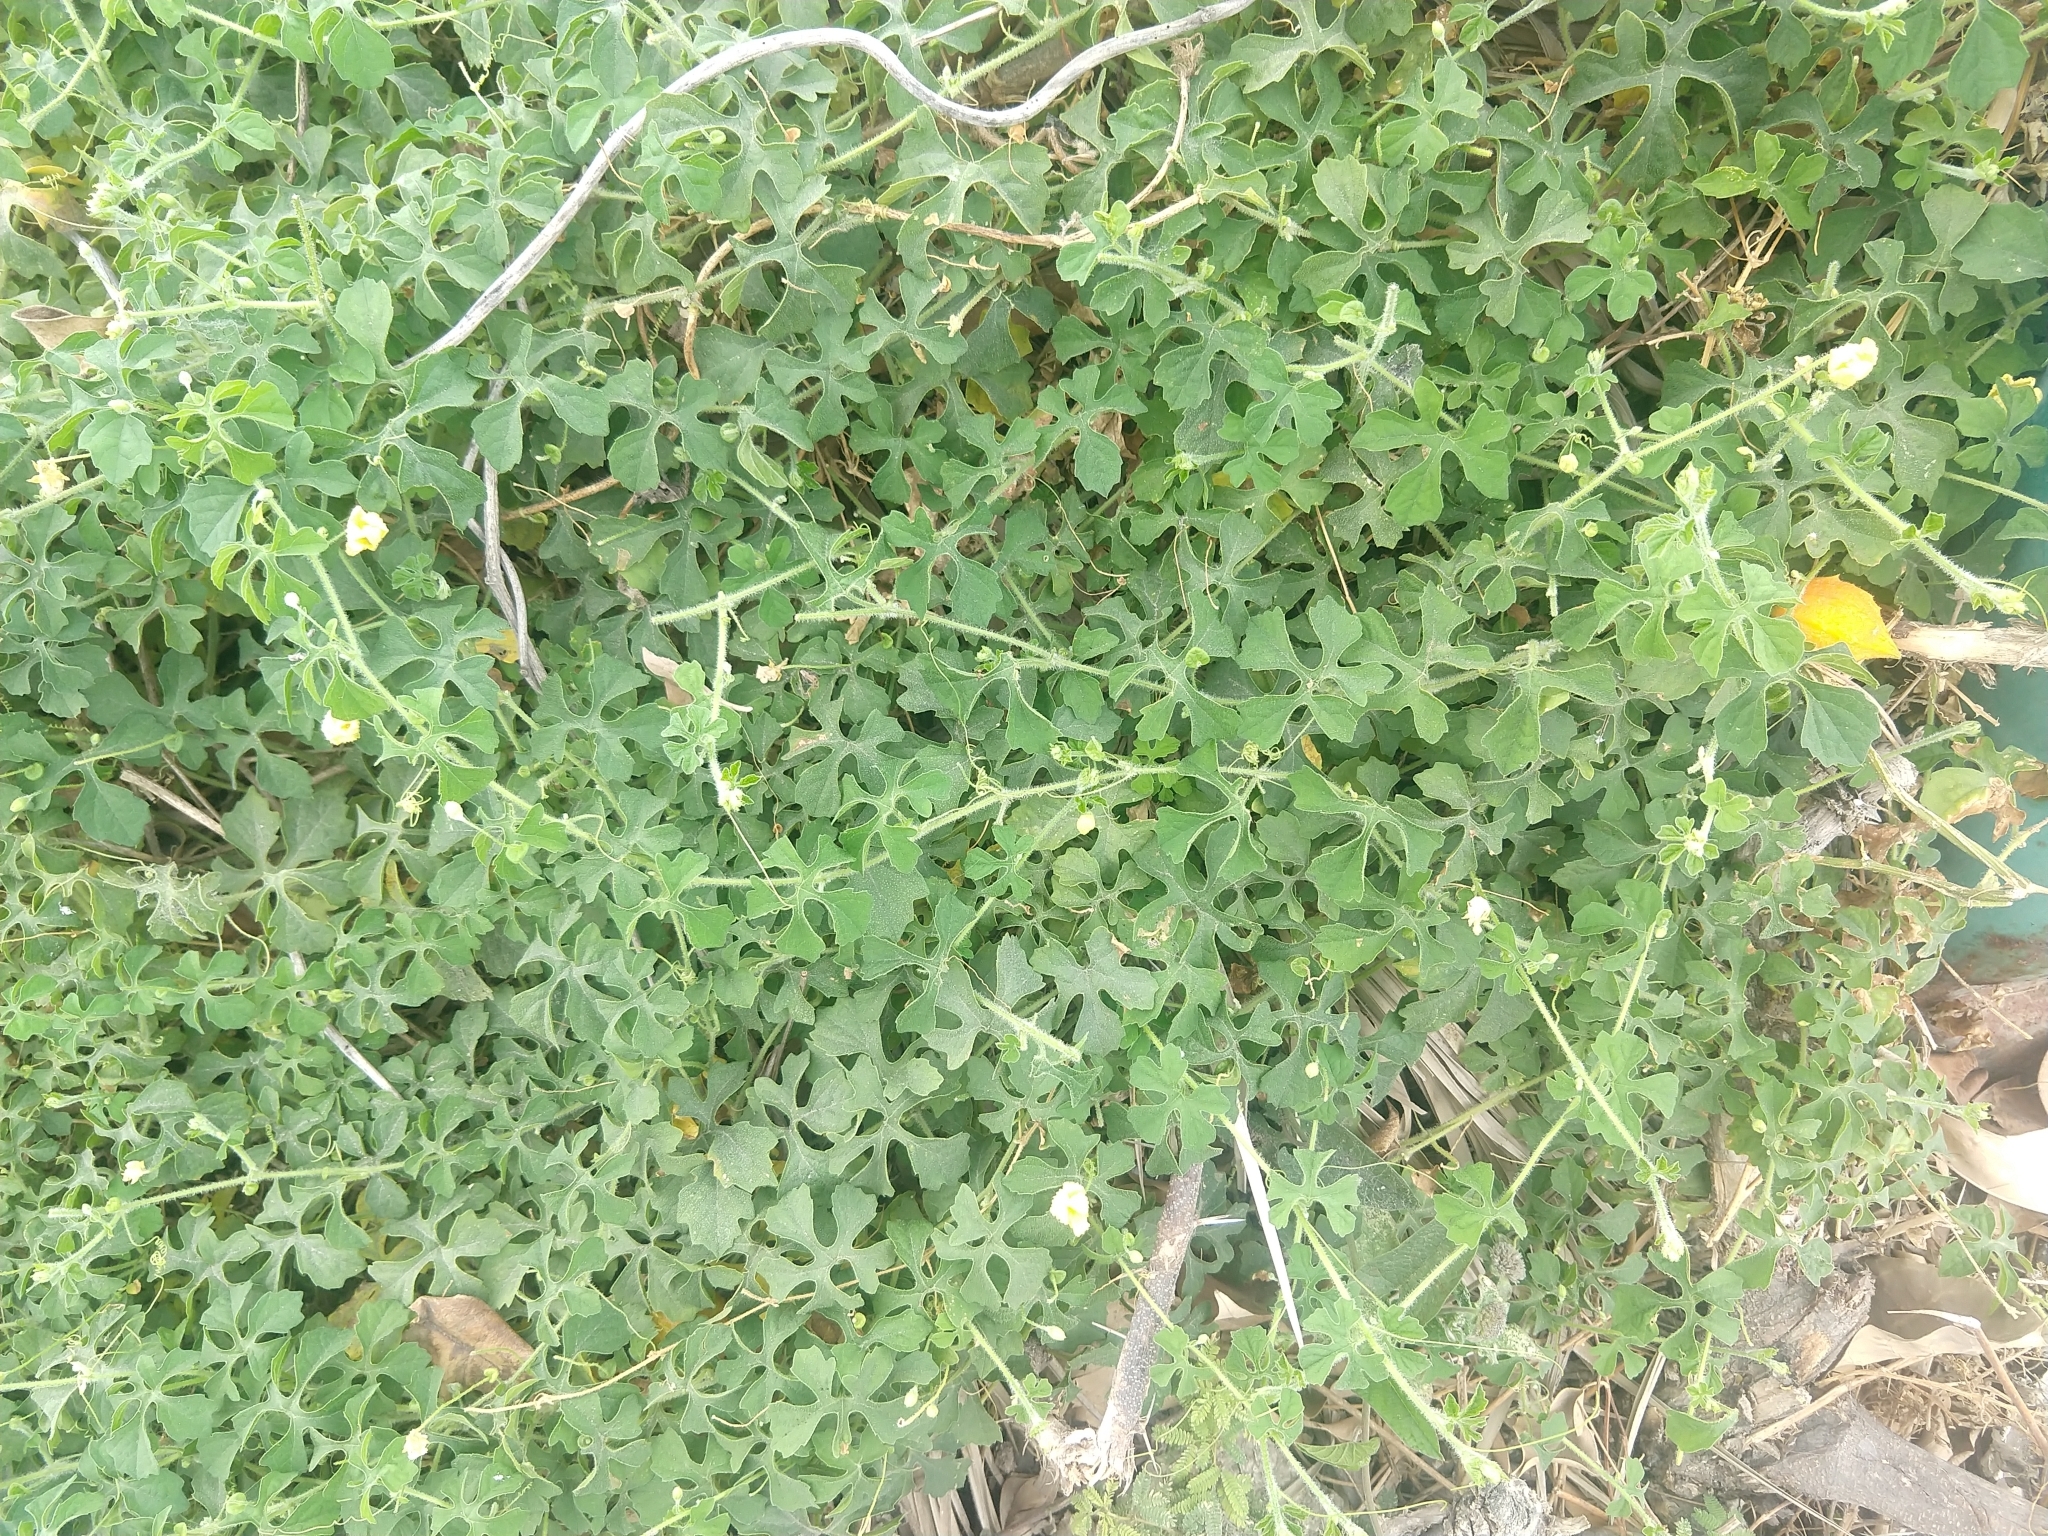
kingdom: Plantae
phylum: Tracheophyta
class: Magnoliopsida
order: Cucurbitales
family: Cucurbitaceae
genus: Momordica
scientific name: Momordica charantia
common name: Balsampear
